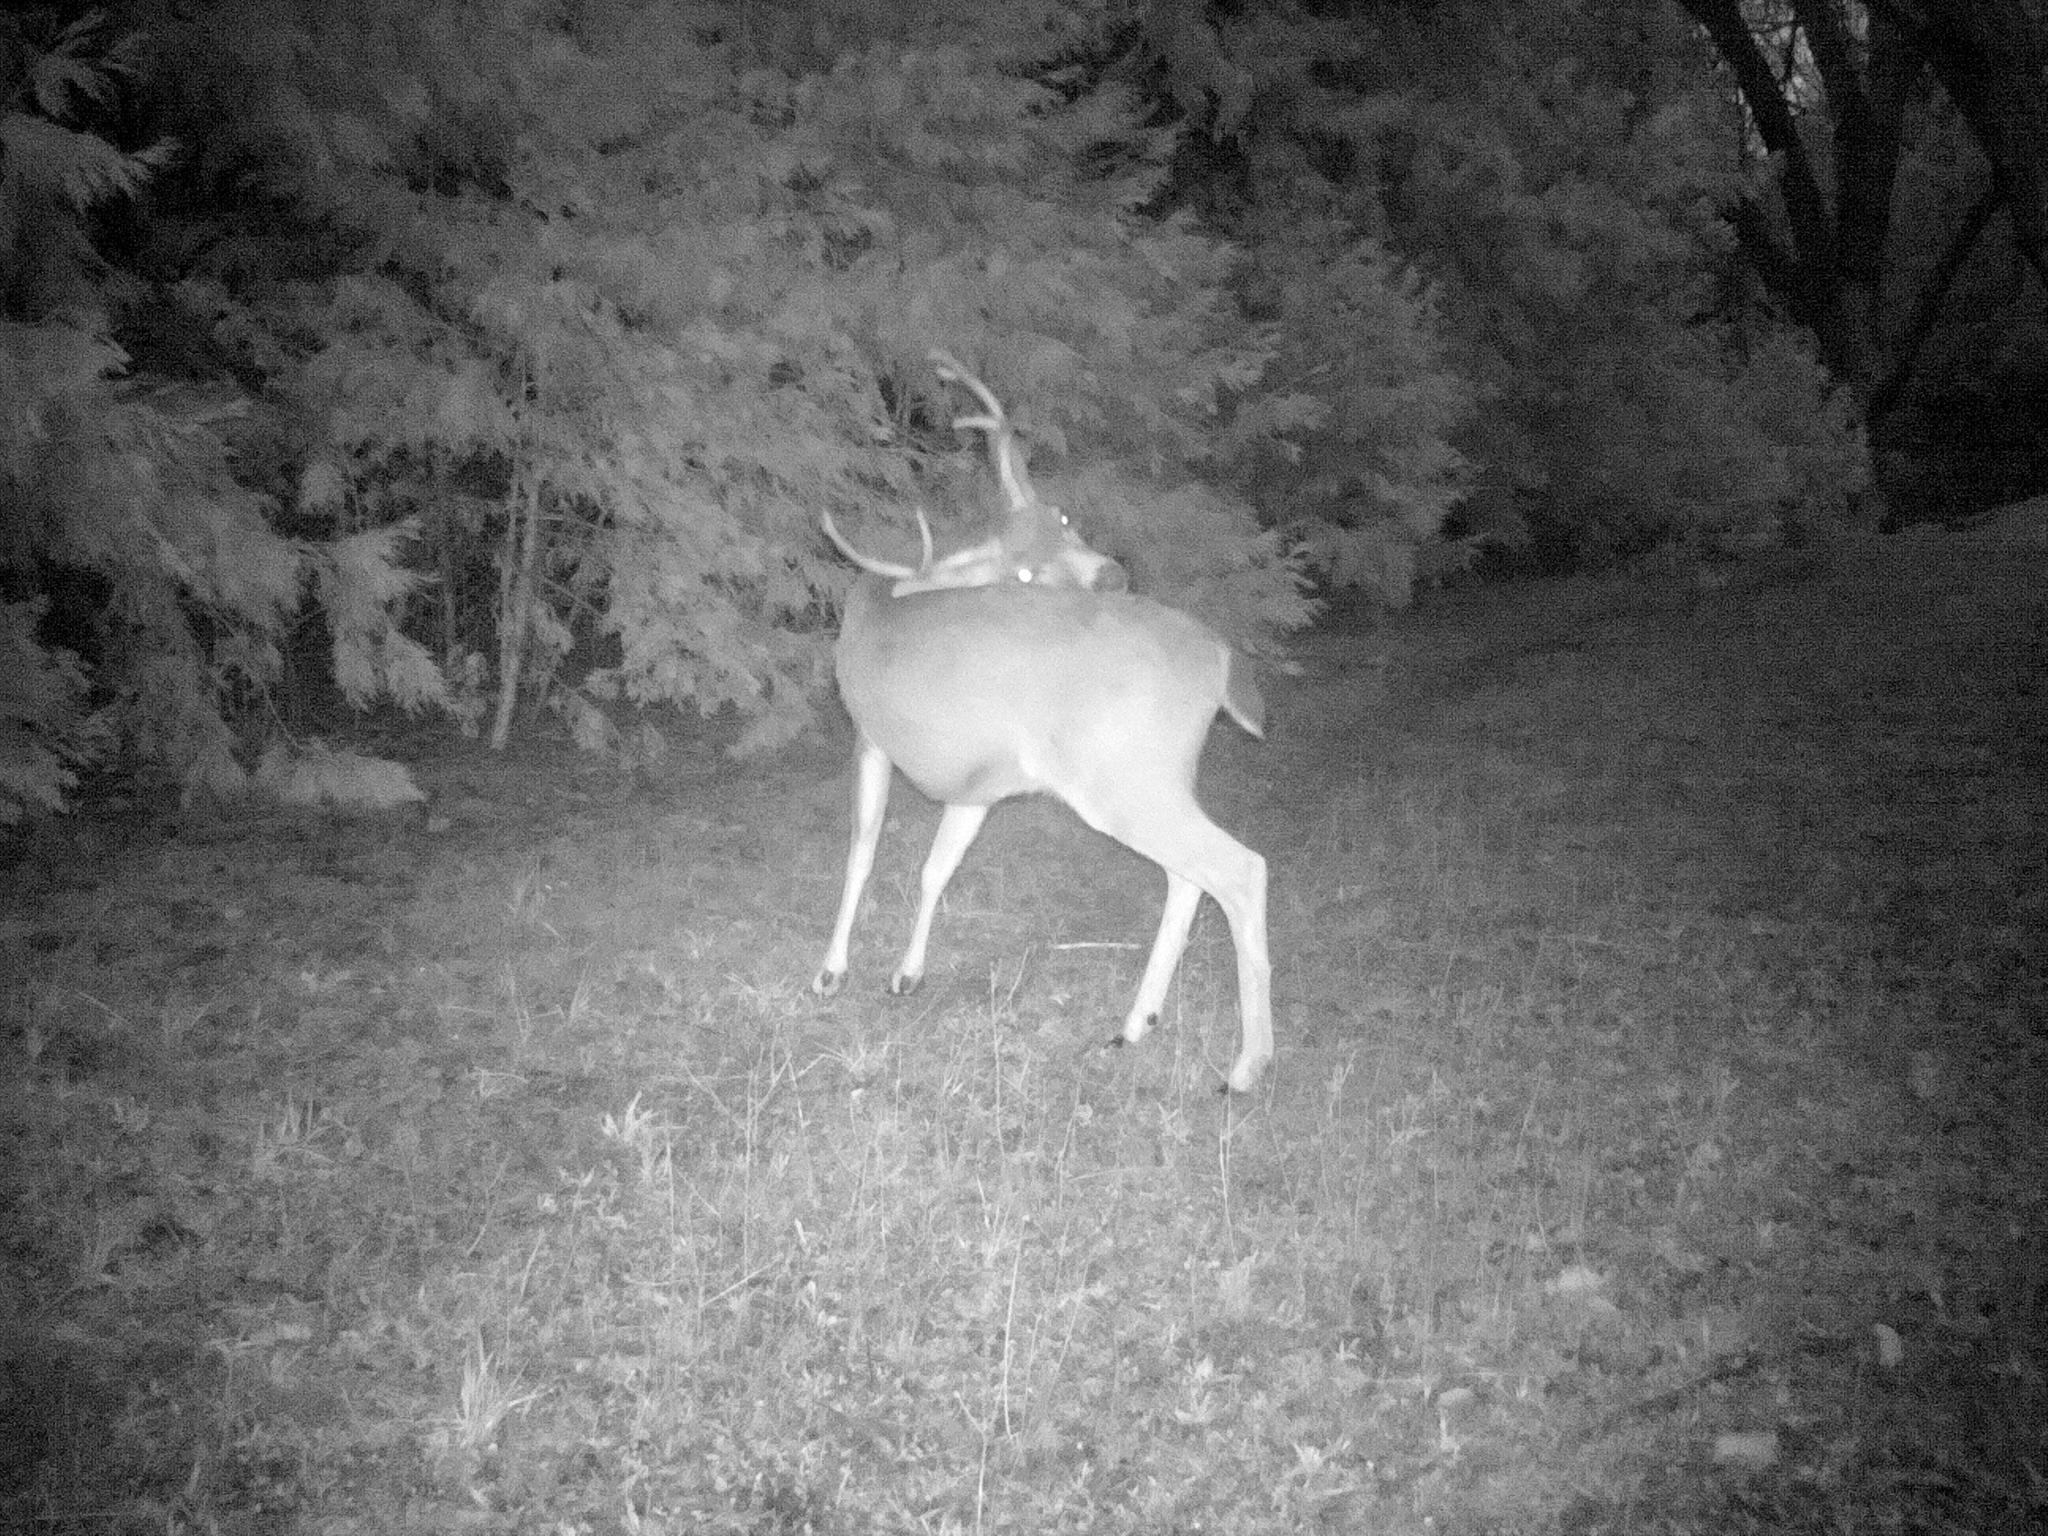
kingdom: Animalia
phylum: Chordata
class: Mammalia
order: Artiodactyla
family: Cervidae
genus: Odocoileus
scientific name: Odocoileus hemionus
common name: Mule deer
